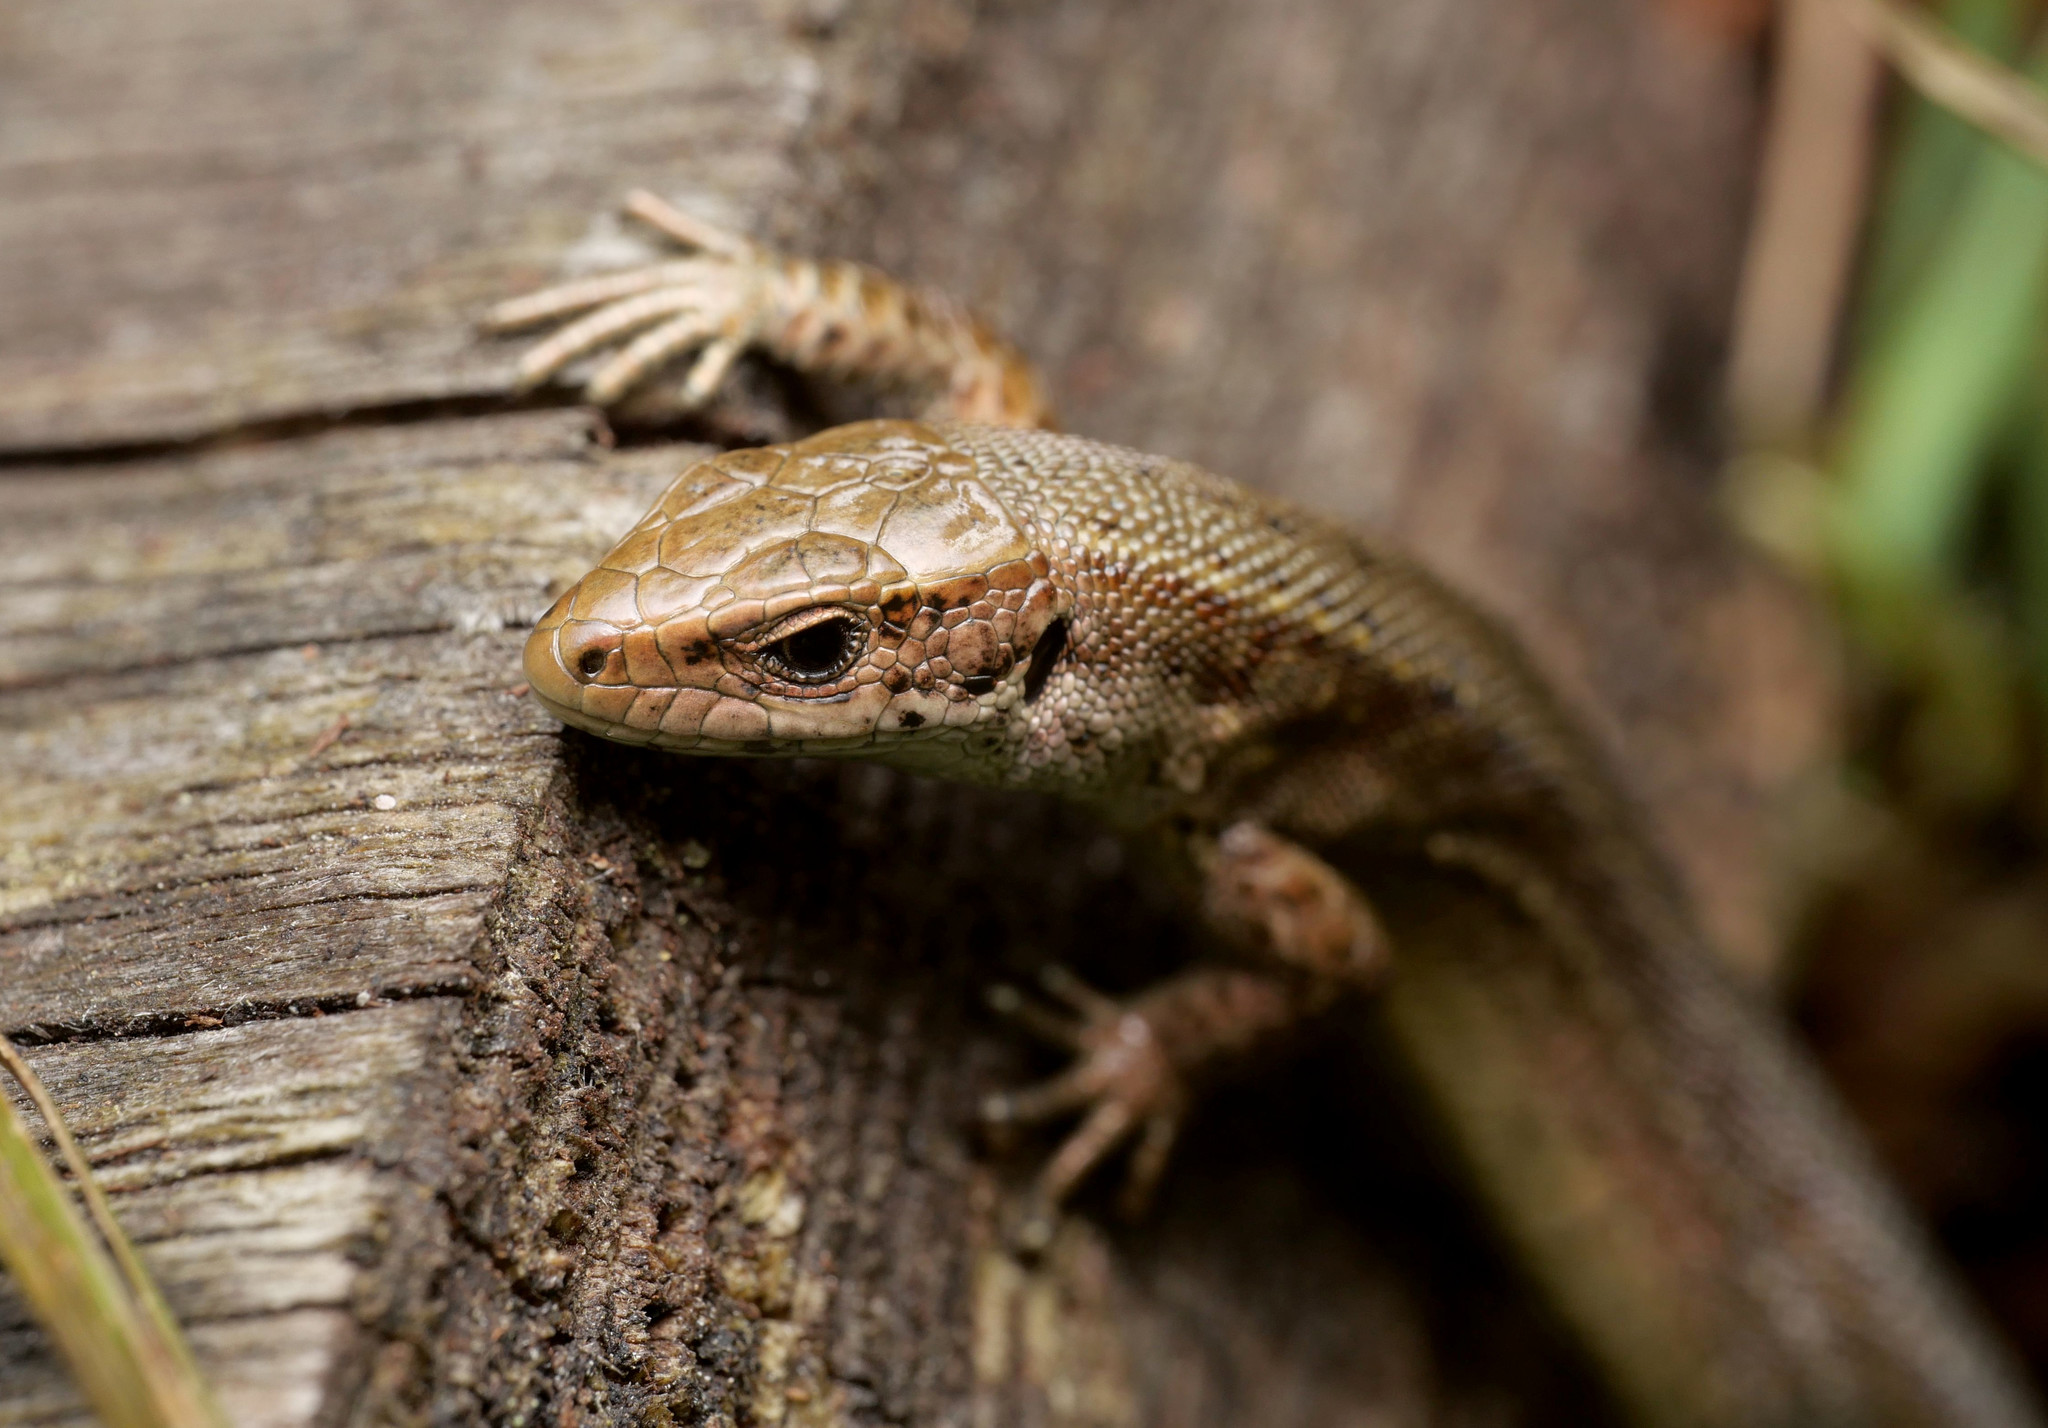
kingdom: Animalia
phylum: Chordata
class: Squamata
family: Lacertidae
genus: Zootoca
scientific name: Zootoca vivipara
